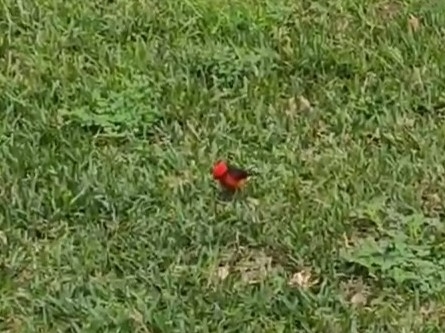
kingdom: Animalia
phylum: Chordata
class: Aves
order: Passeriformes
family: Tyrannidae
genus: Pyrocephalus
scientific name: Pyrocephalus rubinus
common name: Vermilion flycatcher
